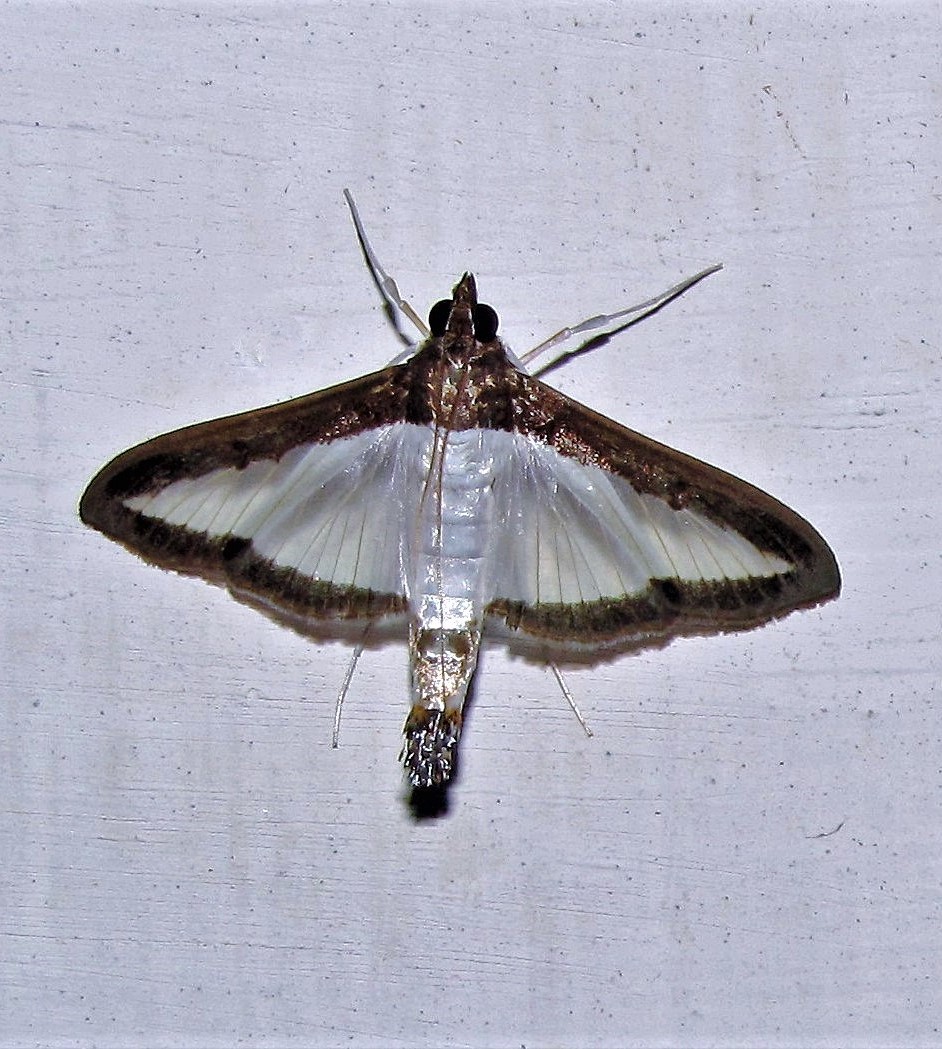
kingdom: Animalia
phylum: Arthropoda
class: Insecta
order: Lepidoptera
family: Crambidae
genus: Diaphania
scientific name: Diaphania hyalinata
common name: Melonworm
